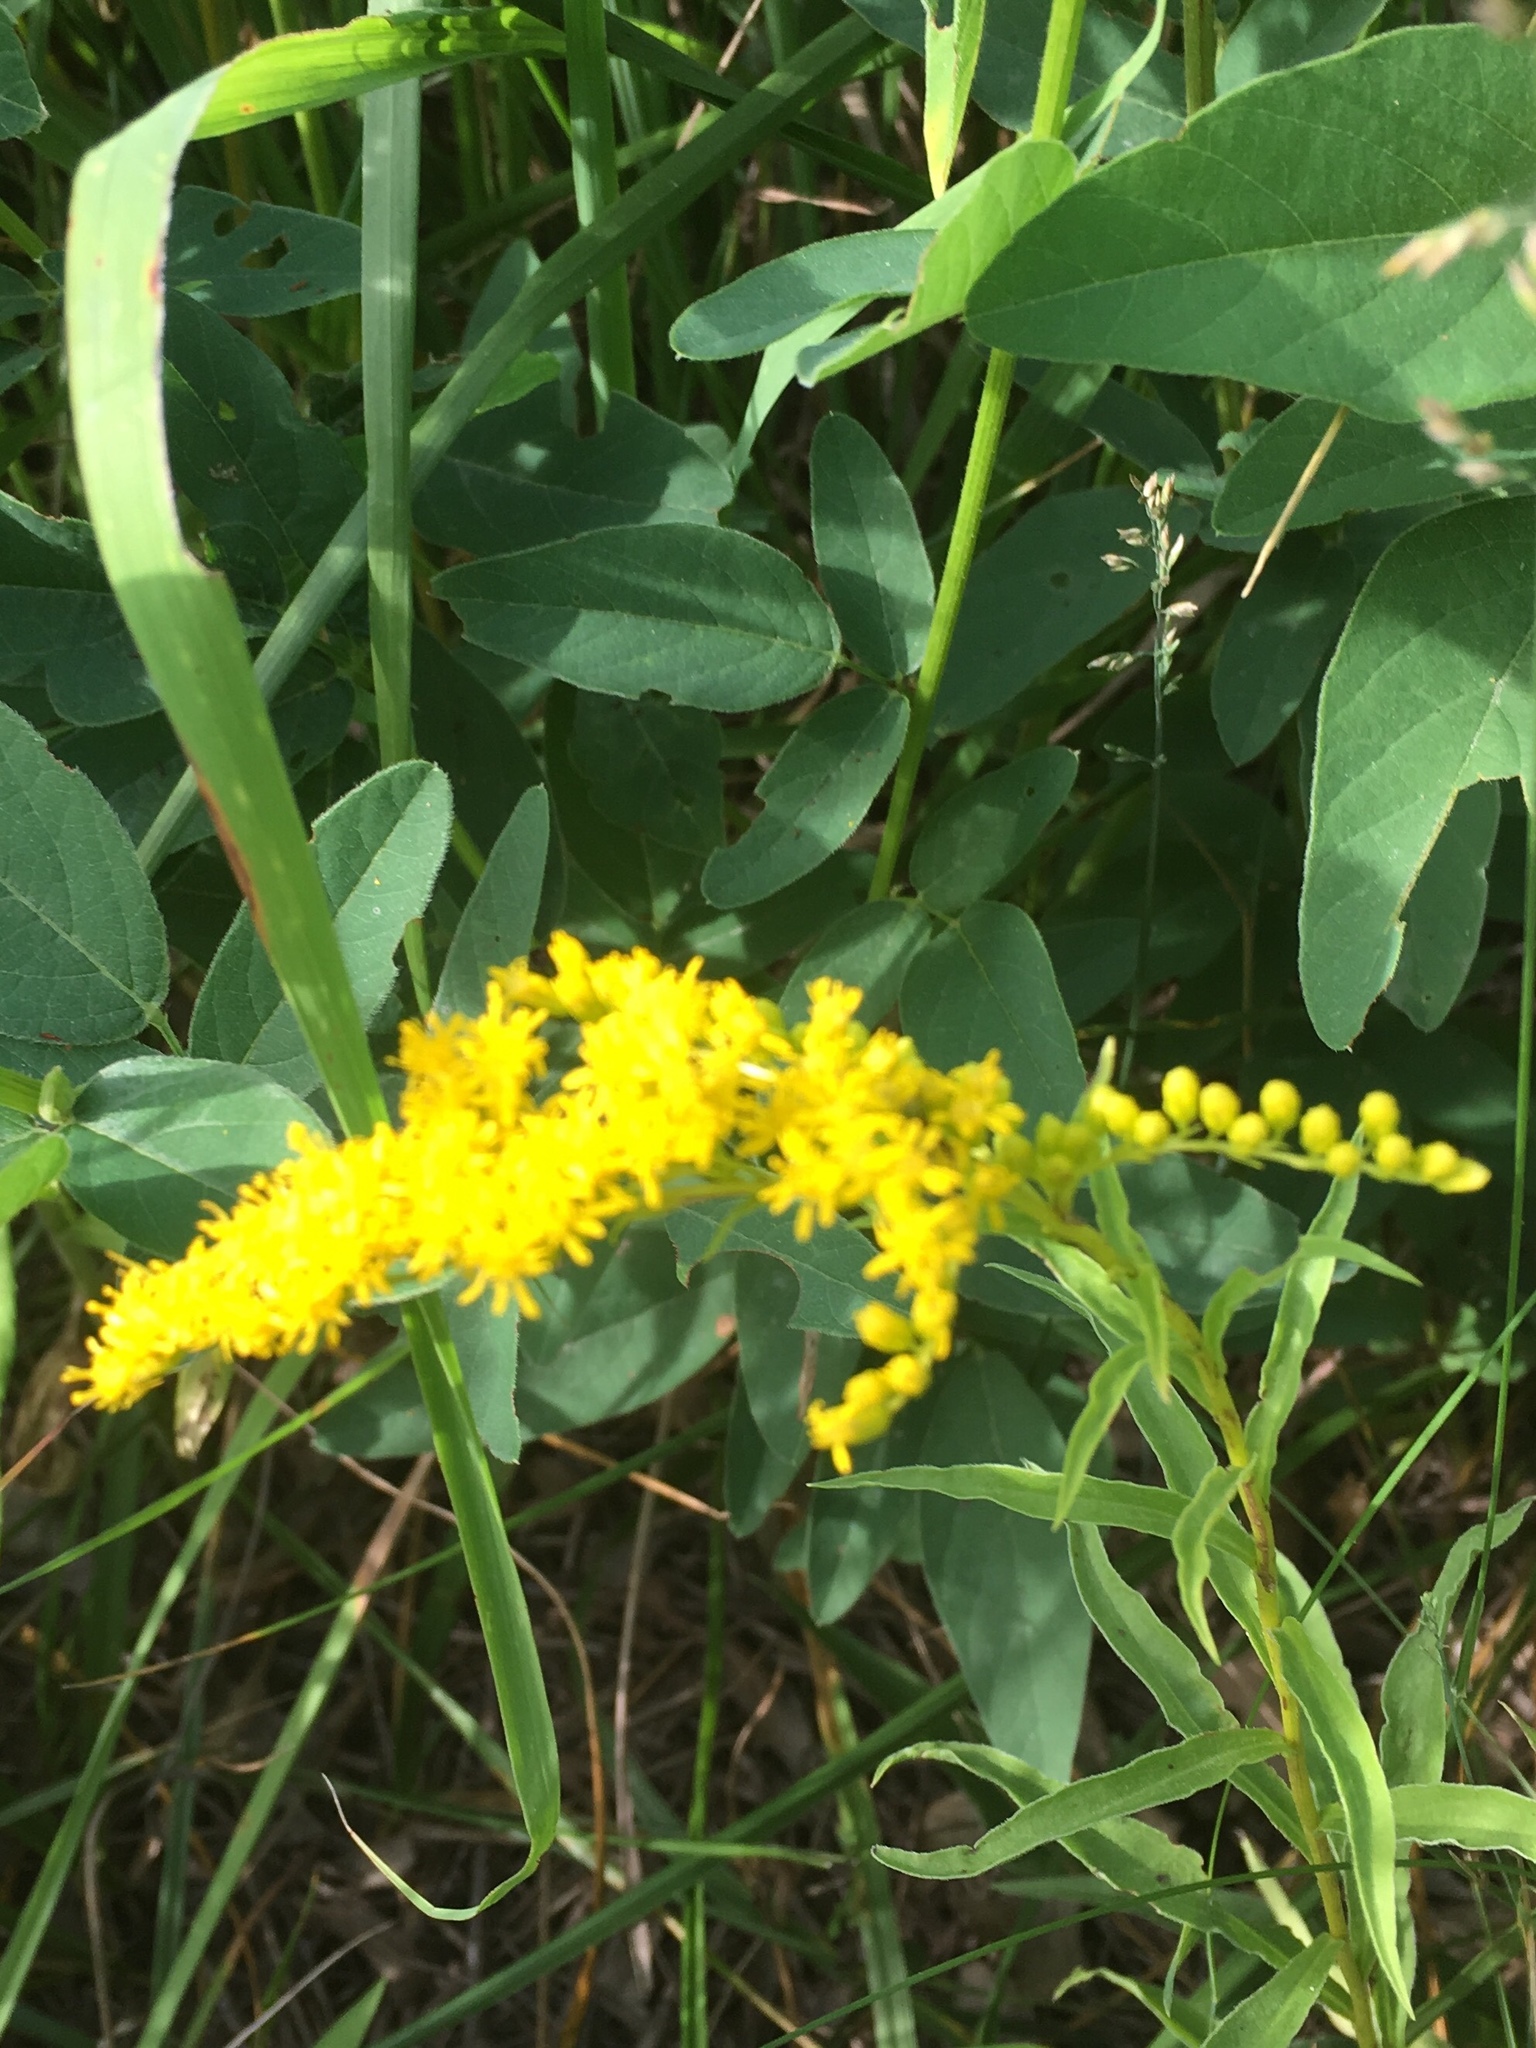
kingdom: Plantae
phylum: Tracheophyta
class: Magnoliopsida
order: Asterales
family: Asteraceae
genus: Solidago
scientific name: Solidago juncea
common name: Early goldenrod
